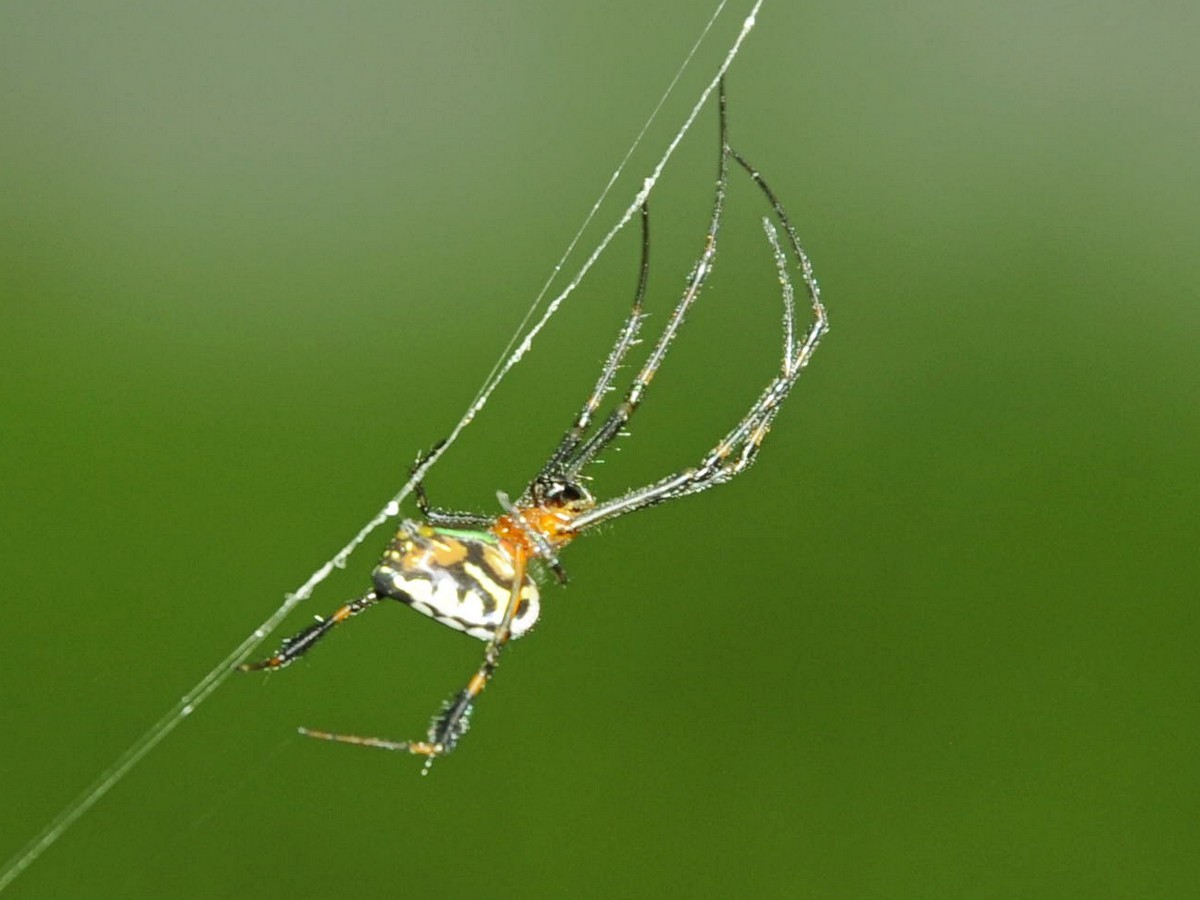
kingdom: Animalia
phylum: Arthropoda
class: Arachnida
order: Araneae
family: Tetragnathidae
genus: Leucauge
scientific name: Leucauge tessellata
